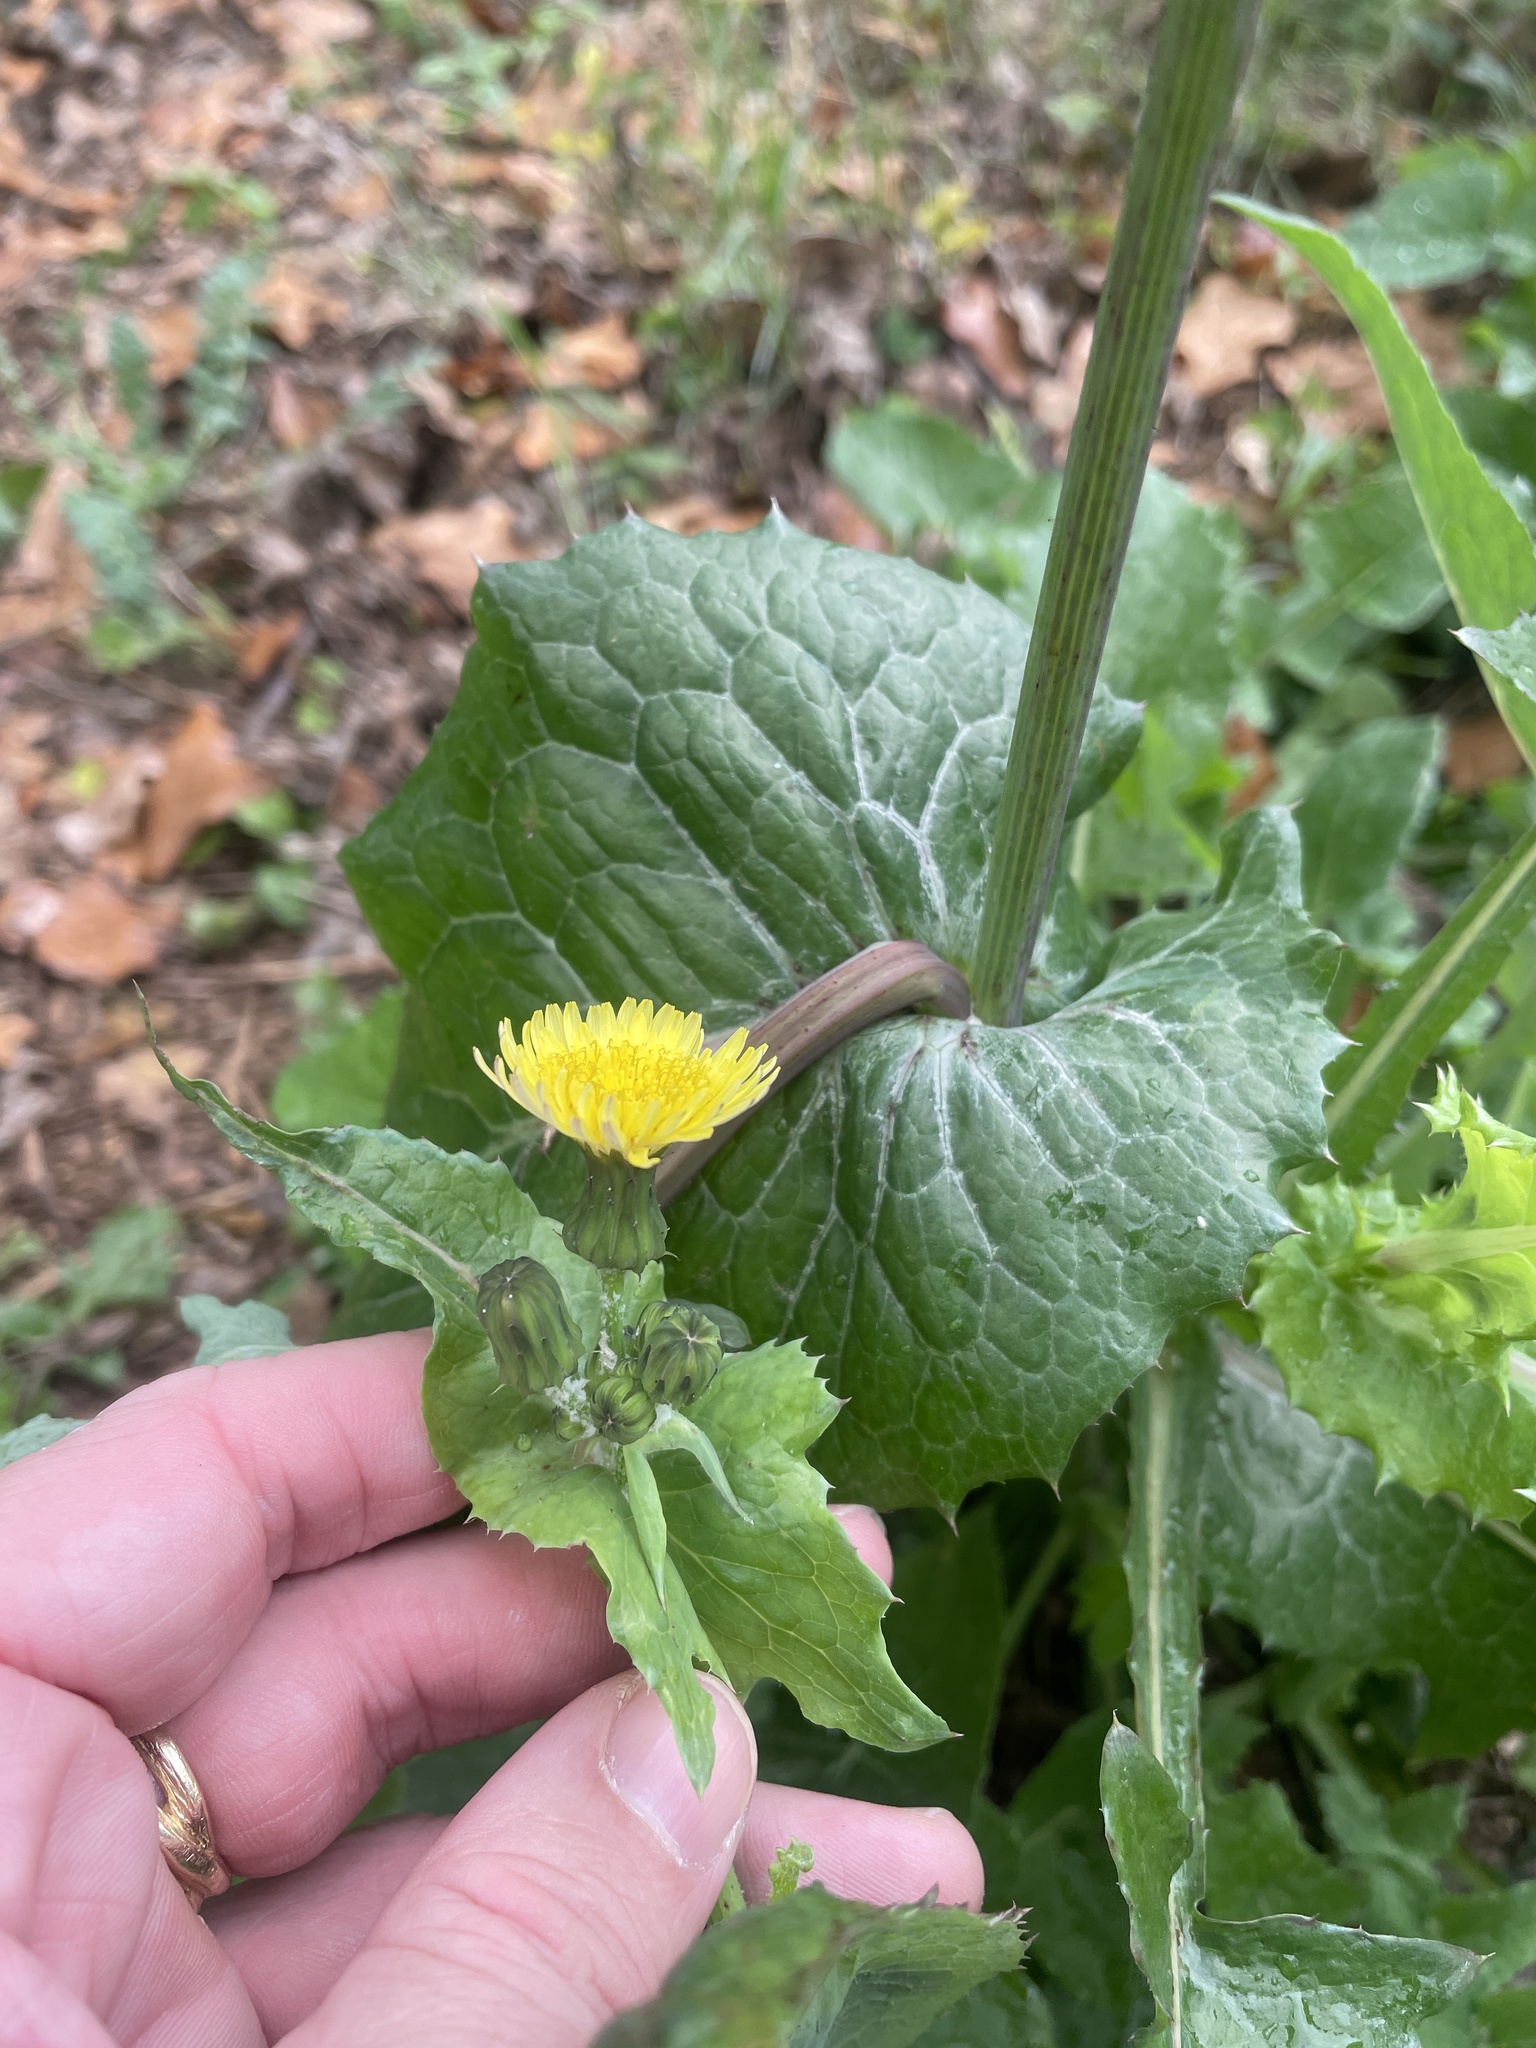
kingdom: Plantae
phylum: Tracheophyta
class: Magnoliopsida
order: Asterales
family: Asteraceae
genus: Sonchus
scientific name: Sonchus oleraceus
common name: Common sowthistle
